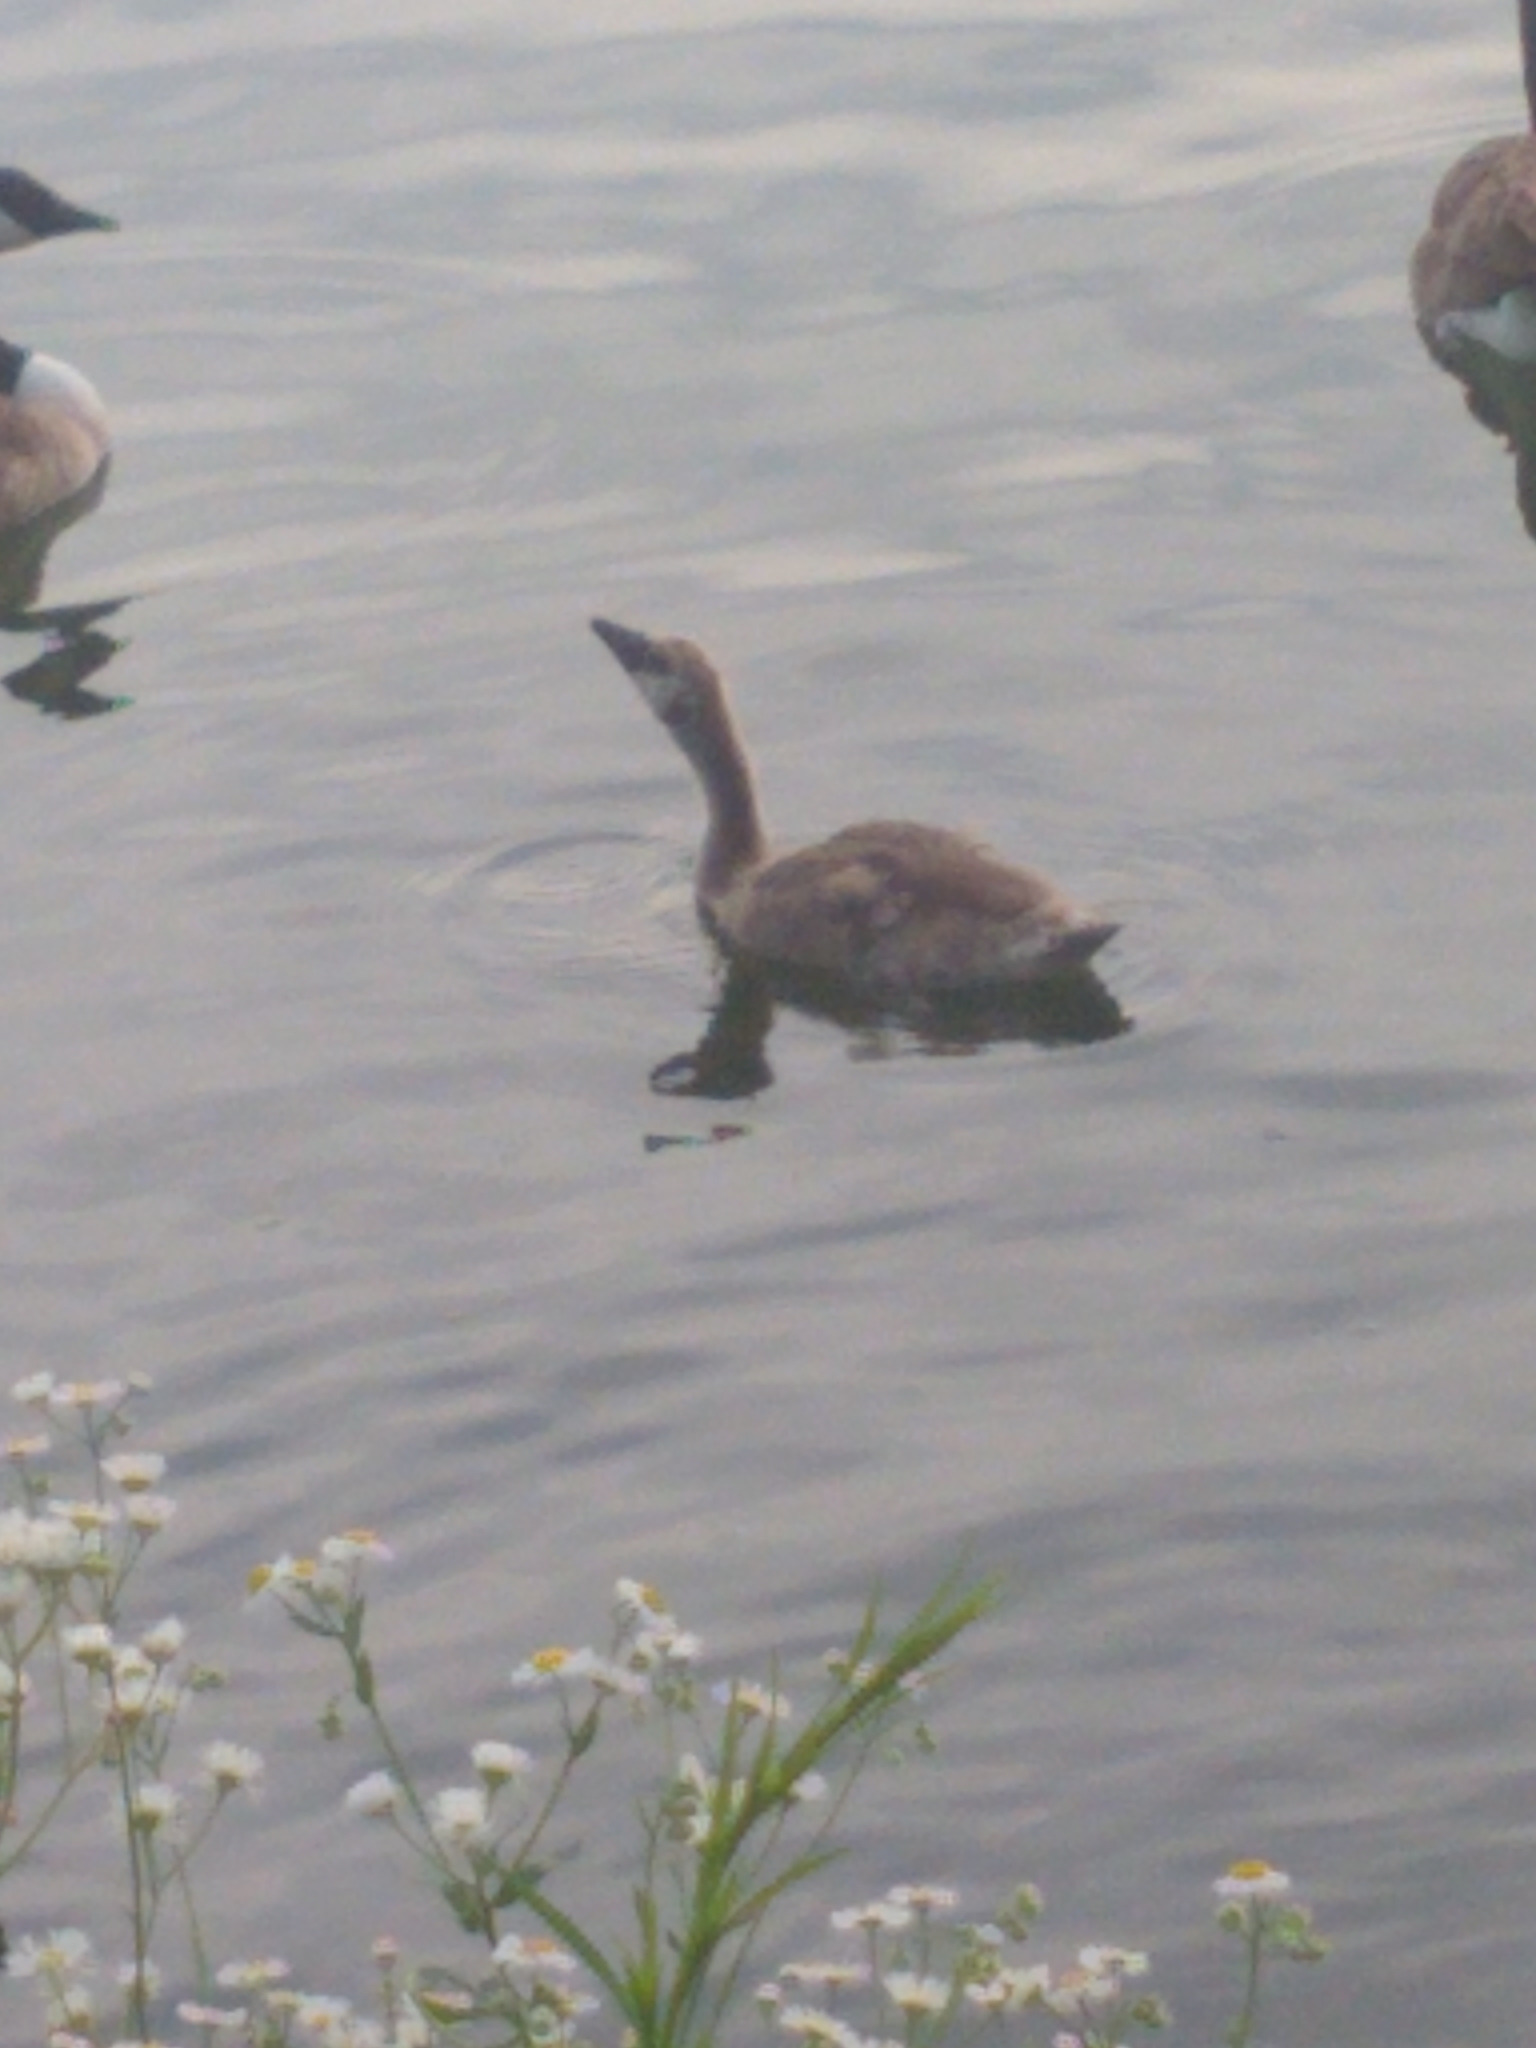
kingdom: Animalia
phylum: Chordata
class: Aves
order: Anseriformes
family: Anatidae
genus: Branta
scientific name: Branta canadensis
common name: Canada goose
